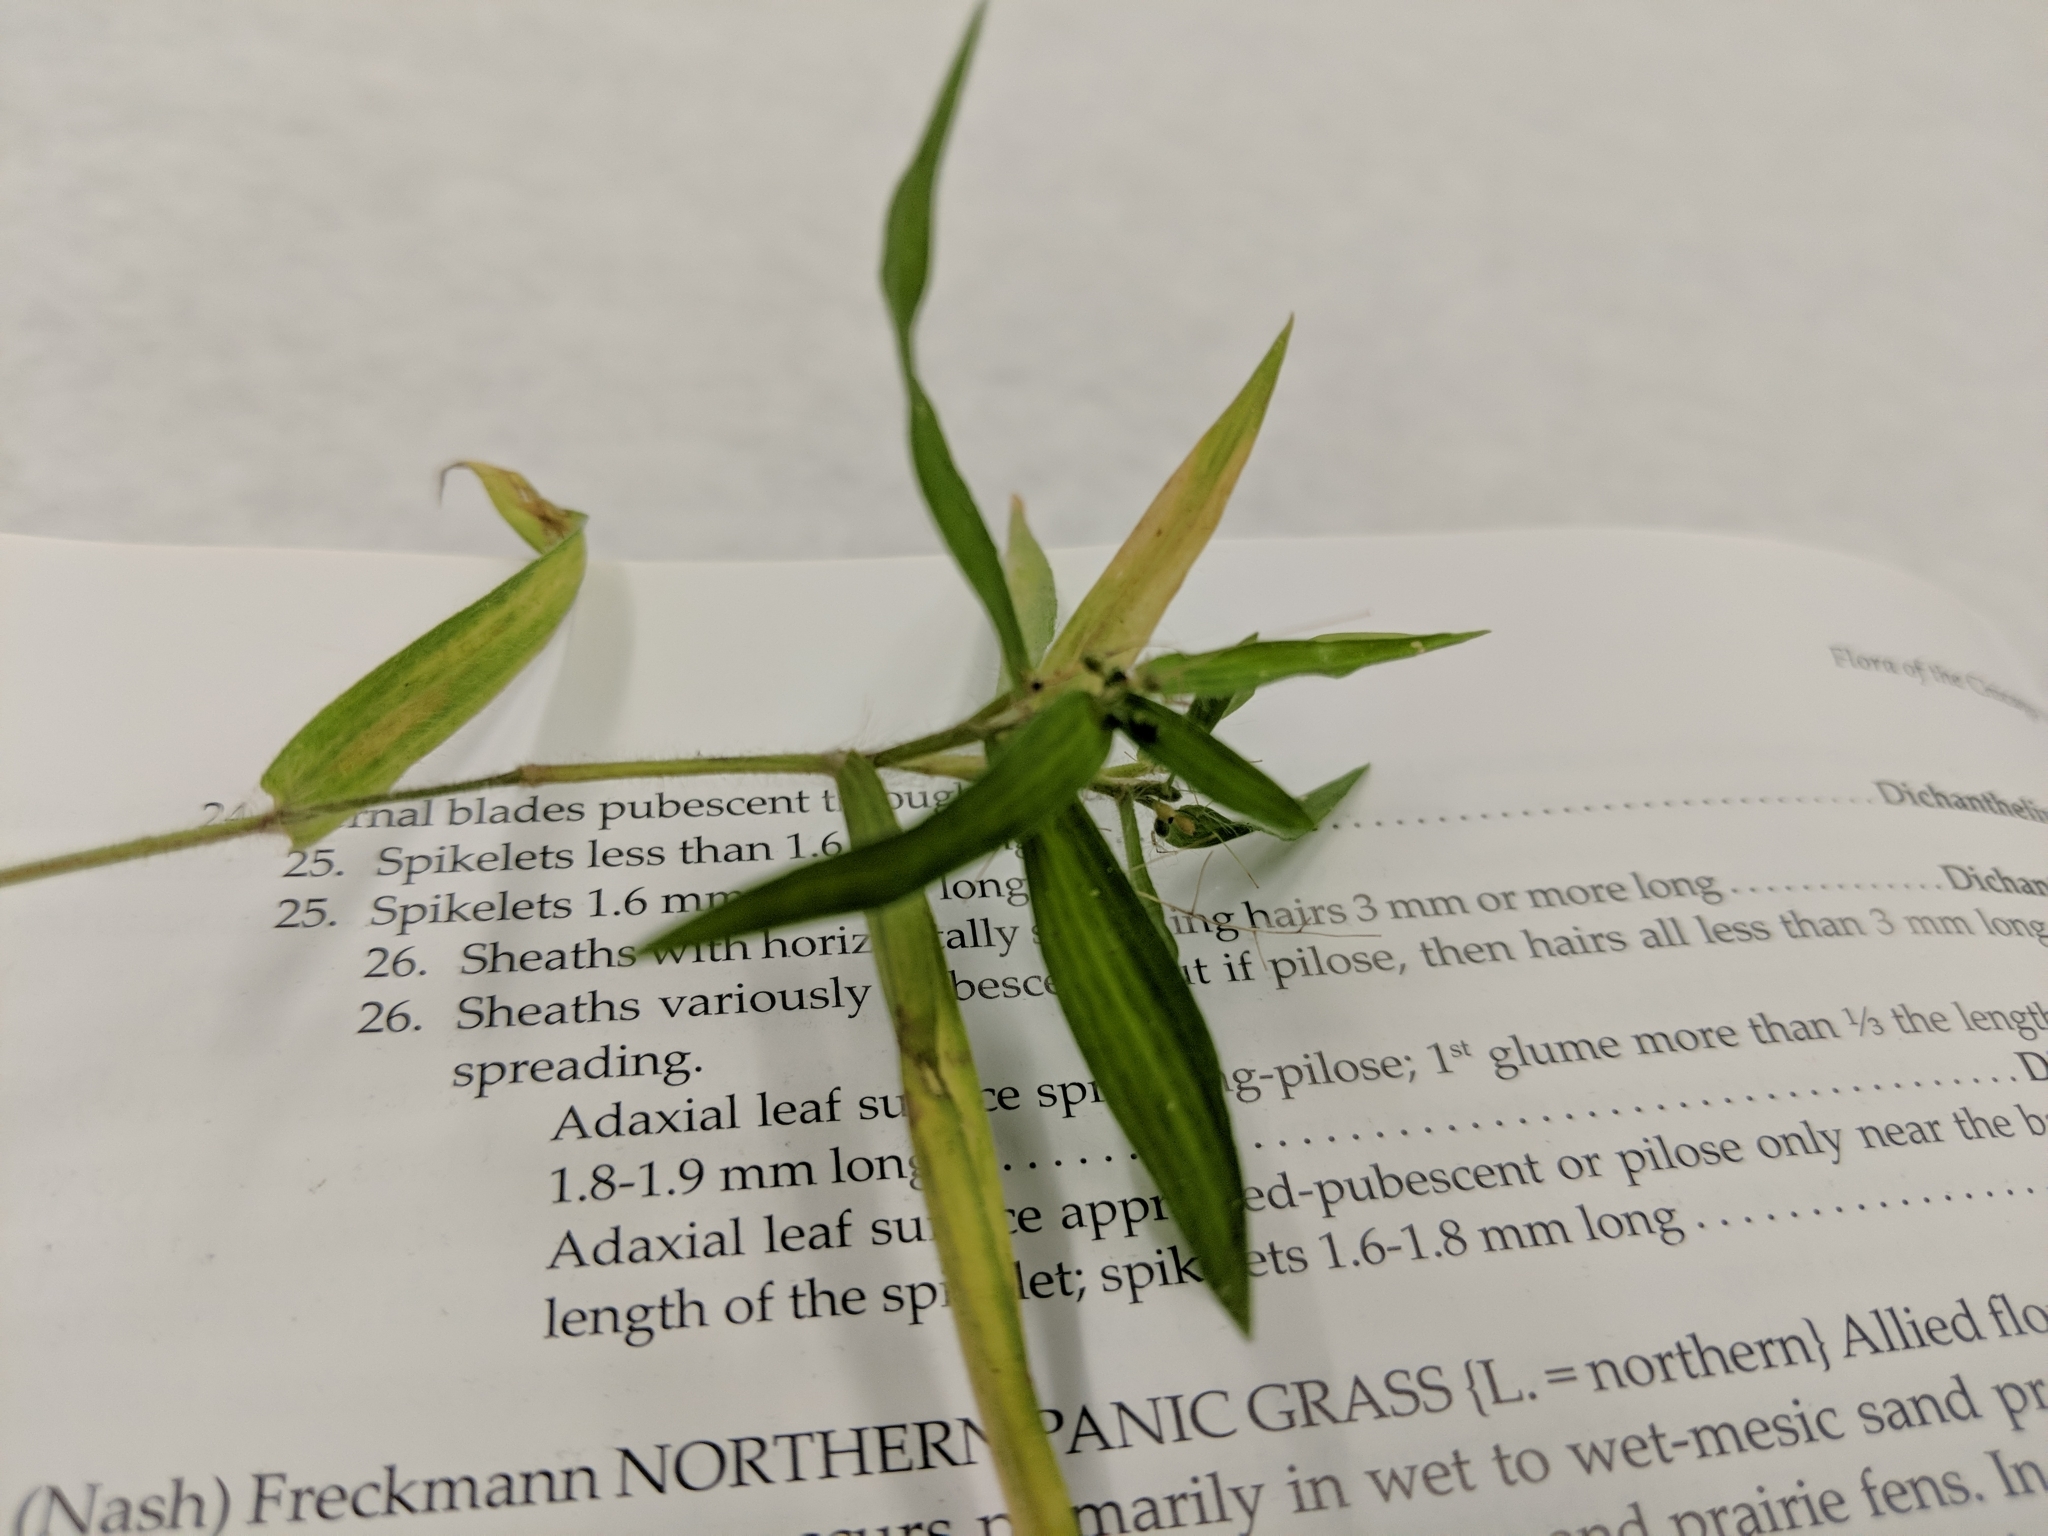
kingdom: Plantae
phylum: Tracheophyta
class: Liliopsida
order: Poales
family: Poaceae
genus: Dichanthelium
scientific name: Dichanthelium implicatum
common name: Slender-stemmed panicgrass
